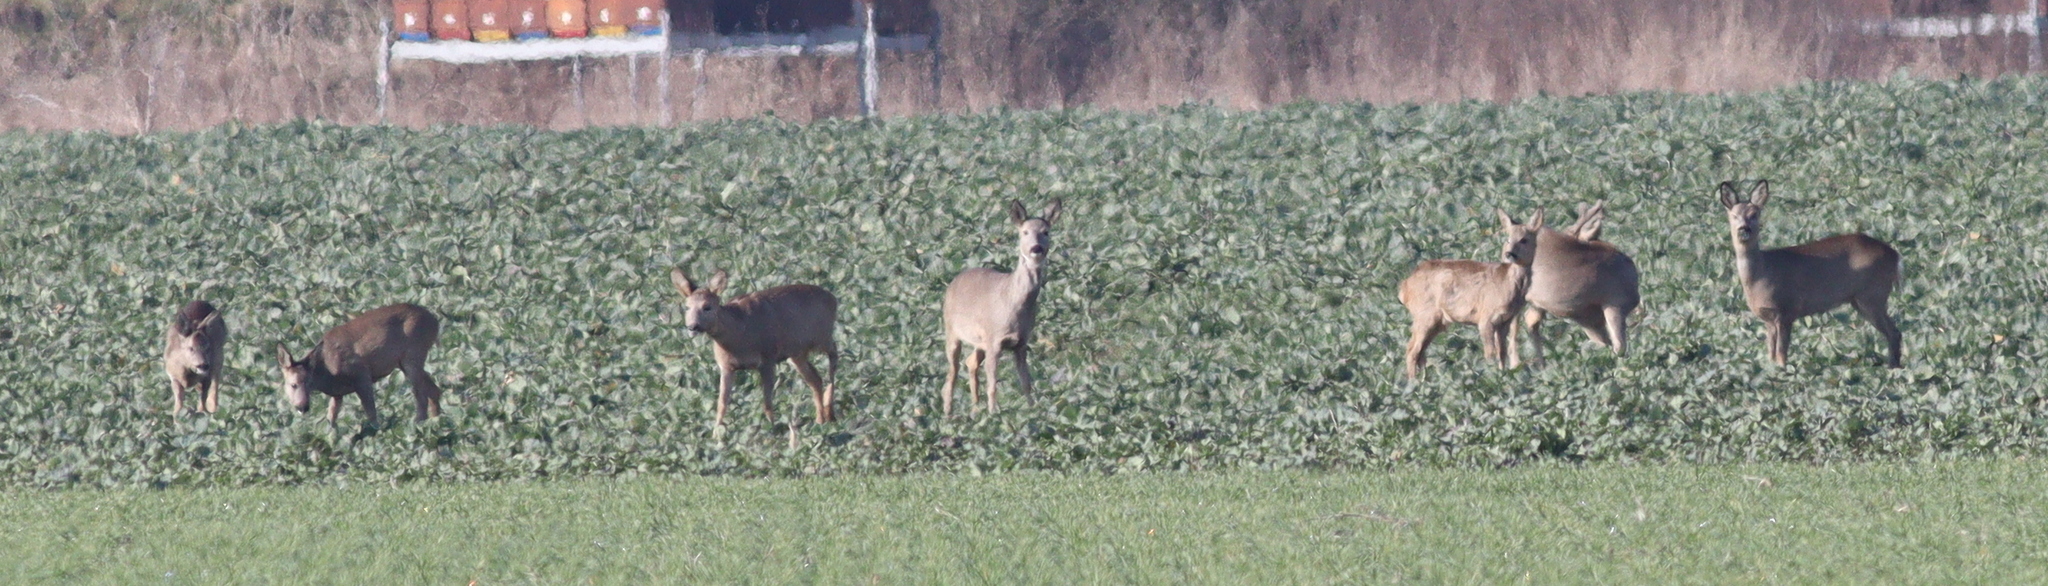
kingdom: Animalia
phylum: Chordata
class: Mammalia
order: Artiodactyla
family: Cervidae
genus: Capreolus
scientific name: Capreolus capreolus
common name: Western roe deer
